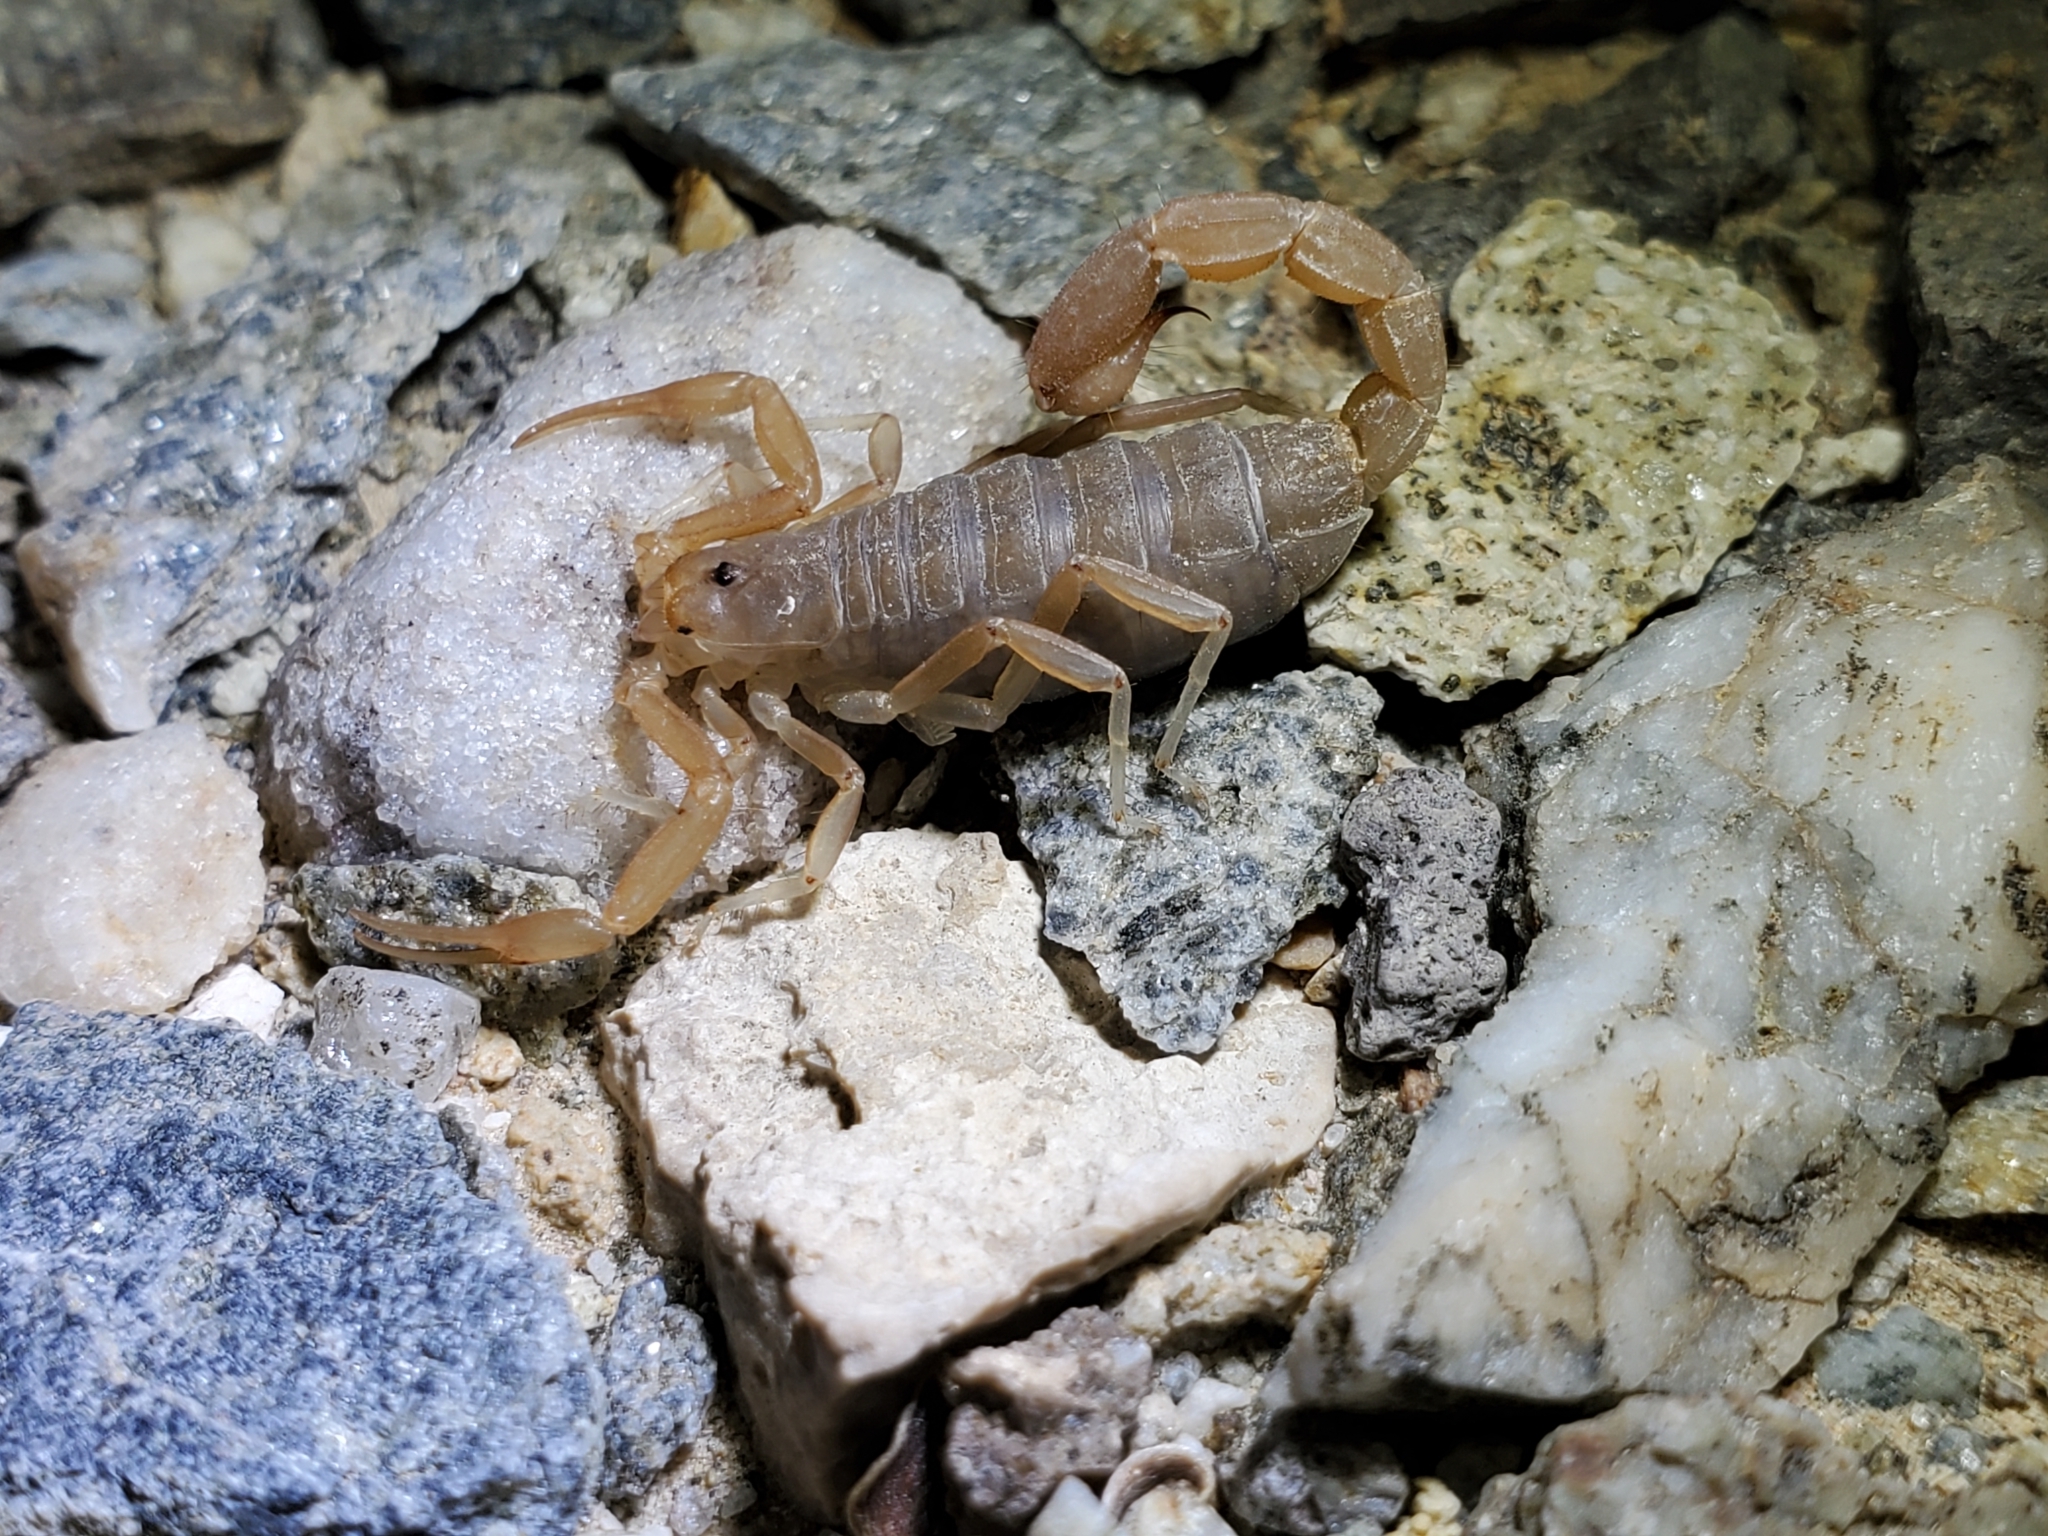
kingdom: Animalia
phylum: Arthropoda
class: Arachnida
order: Scorpiones
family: Vaejovidae
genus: Paravaejovis
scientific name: Paravaejovis waeringi
